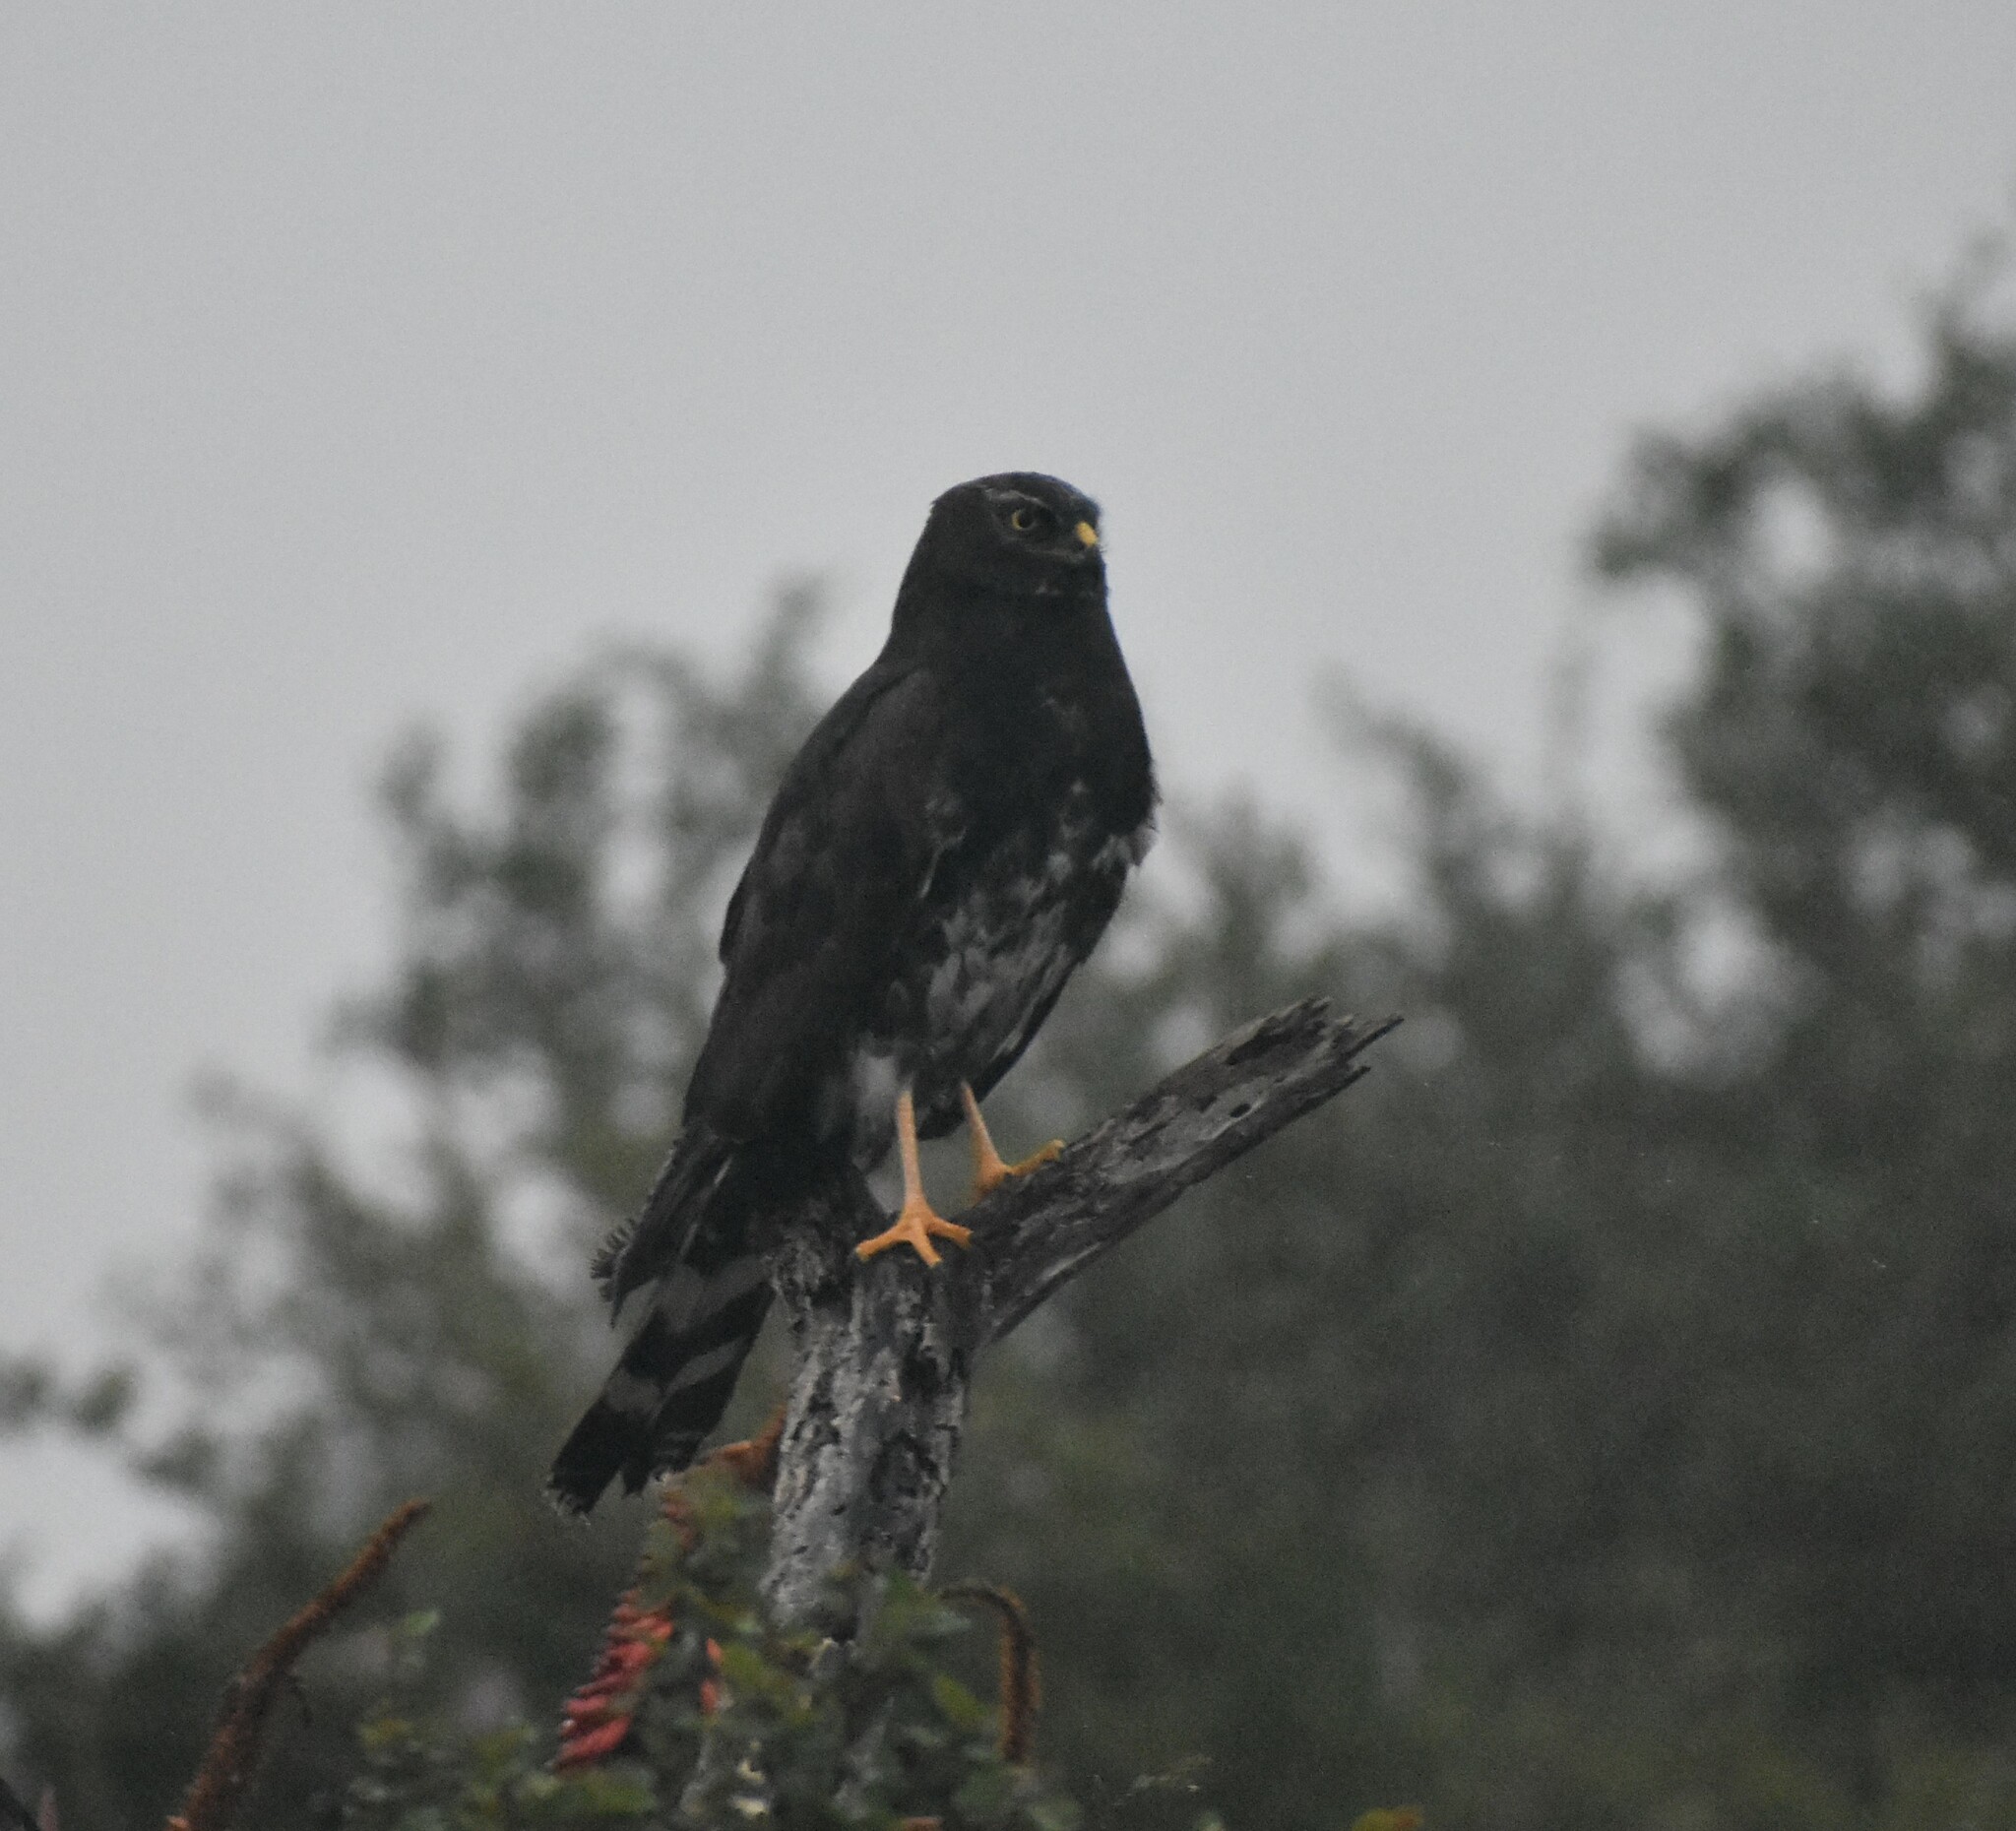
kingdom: Animalia
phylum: Chordata
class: Aves
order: Accipitriformes
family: Accipitridae
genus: Circus
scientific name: Circus maurus
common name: Black harrier
